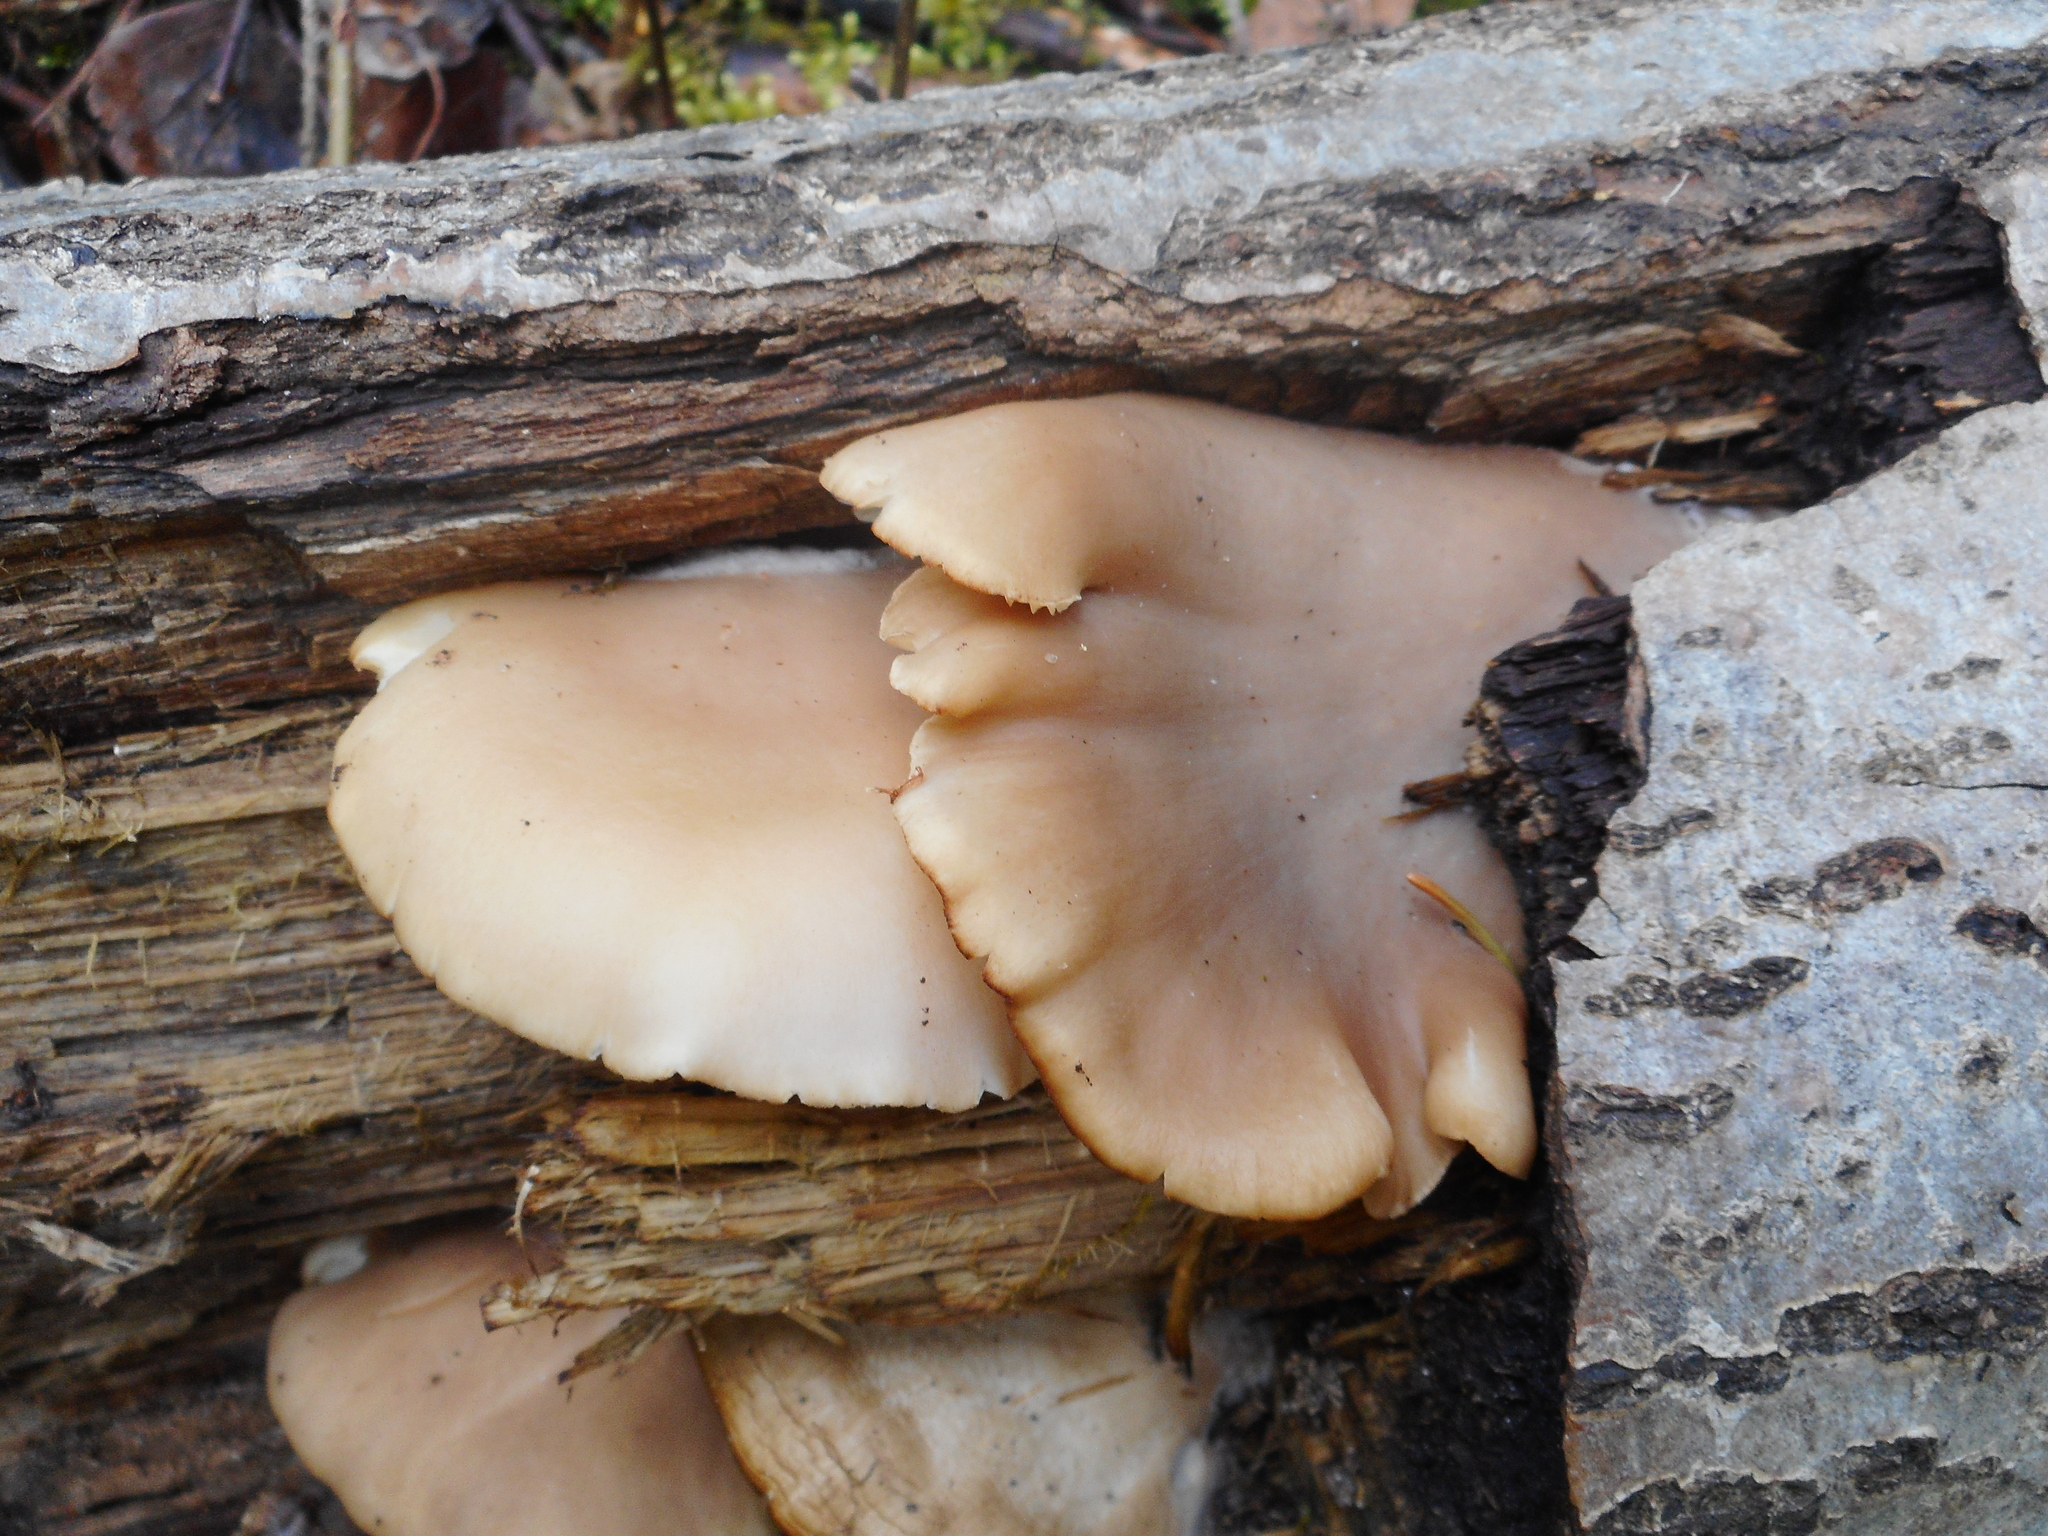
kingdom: Fungi
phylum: Basidiomycota
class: Agaricomycetes
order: Agaricales
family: Pleurotaceae
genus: Pleurotus
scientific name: Pleurotus pulmonarius
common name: Pale oyster
